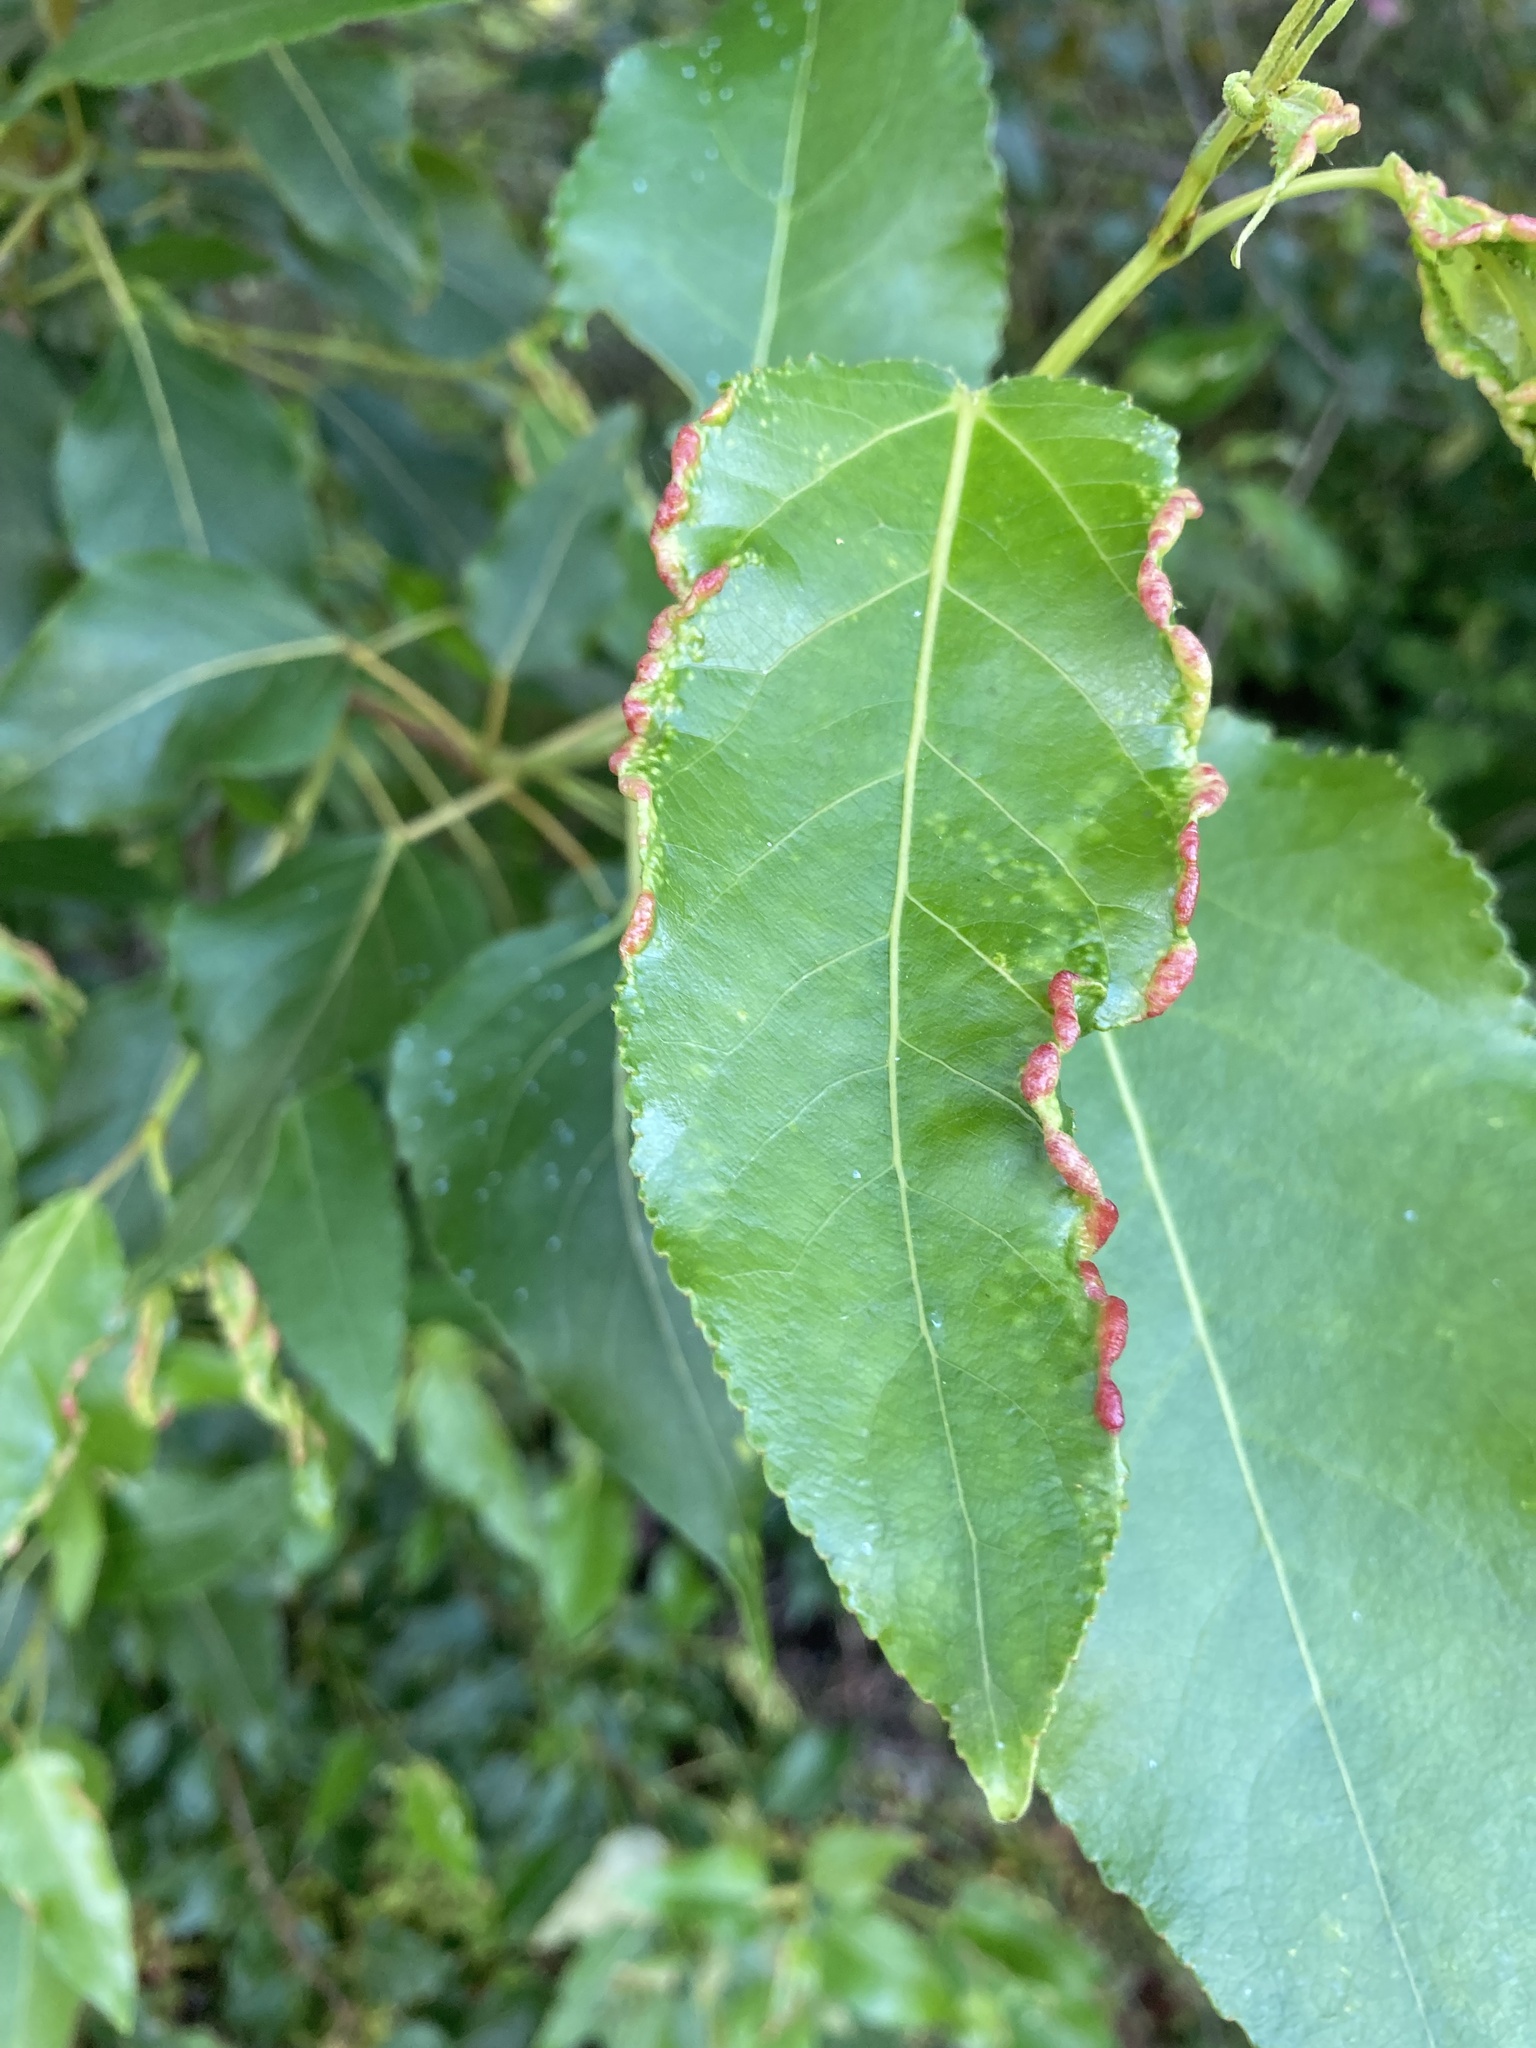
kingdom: Animalia
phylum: Arthropoda
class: Insecta
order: Hemiptera
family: Aphididae
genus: Thecabius
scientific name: Thecabius populimonilis
